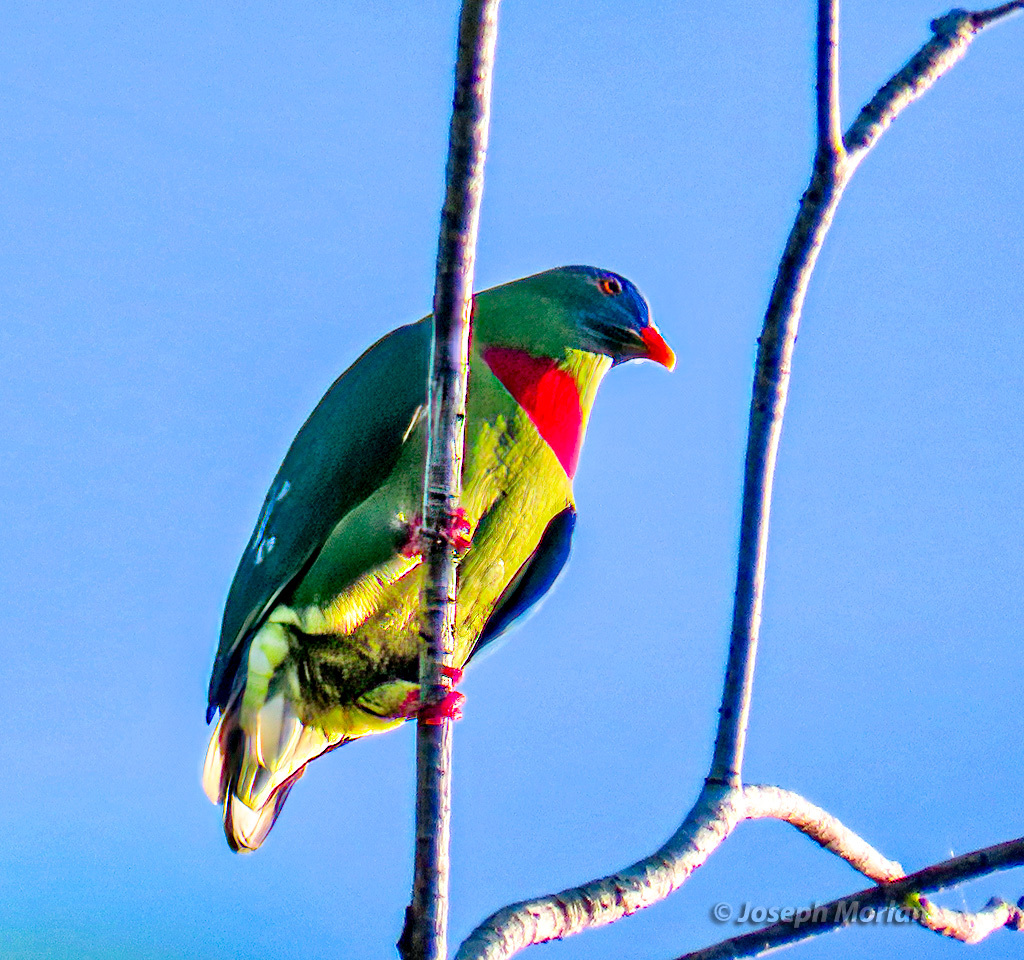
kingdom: Animalia
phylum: Chordata
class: Aves
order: Columbiformes
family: Columbidae
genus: Ptilinopus
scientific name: Ptilinopus viridis
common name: Claret-breasted fruit dove
